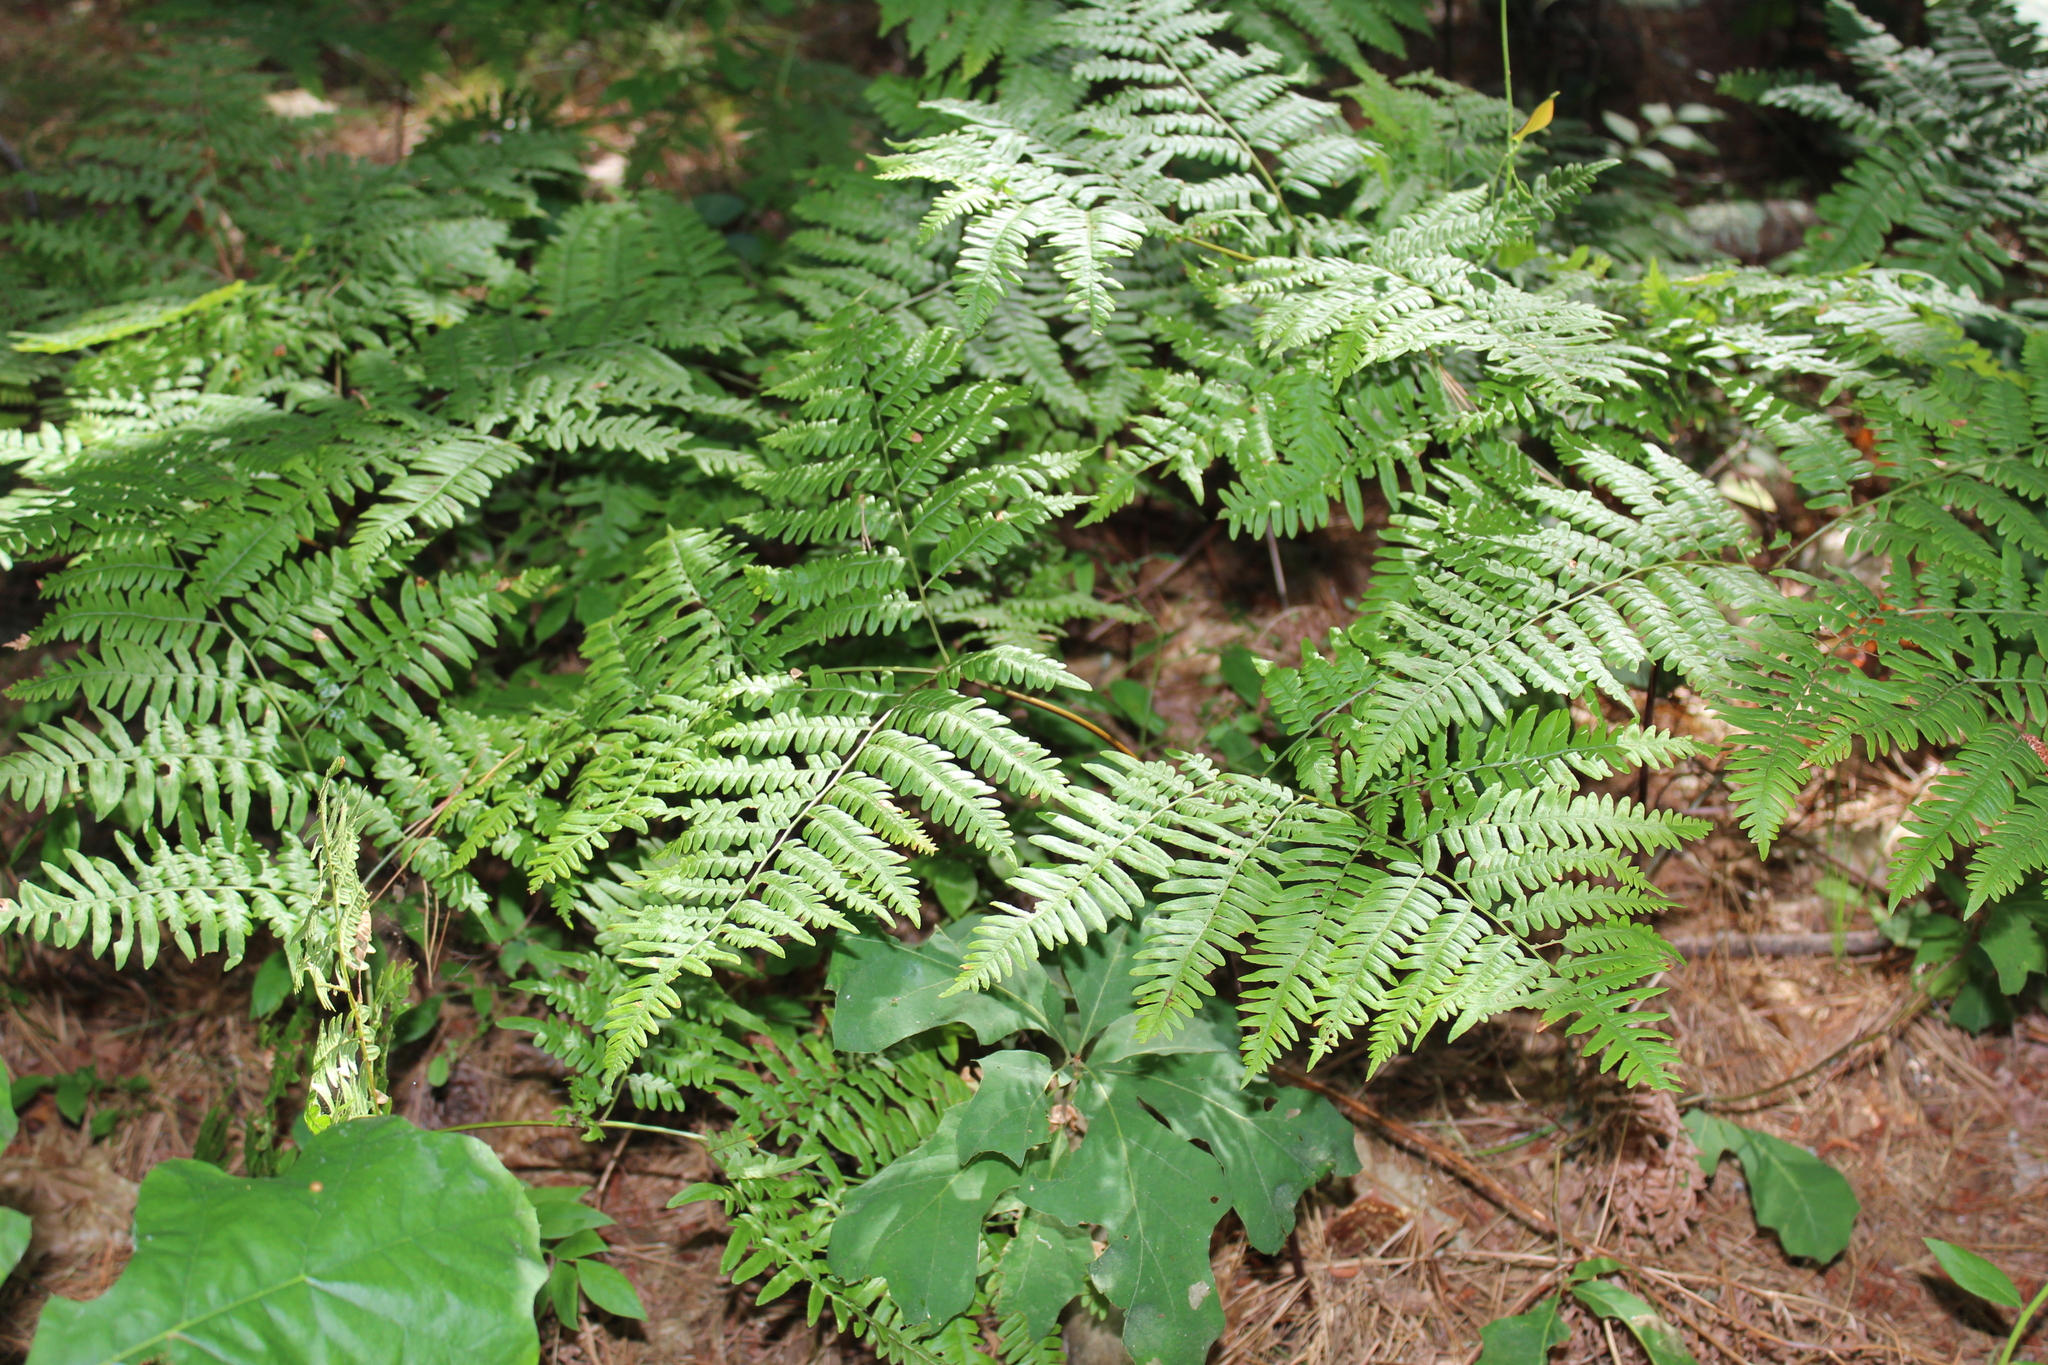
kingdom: Plantae
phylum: Tracheophyta
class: Polypodiopsida
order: Polypodiales
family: Dennstaedtiaceae
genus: Pteridium
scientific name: Pteridium aquilinum
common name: Bracken
